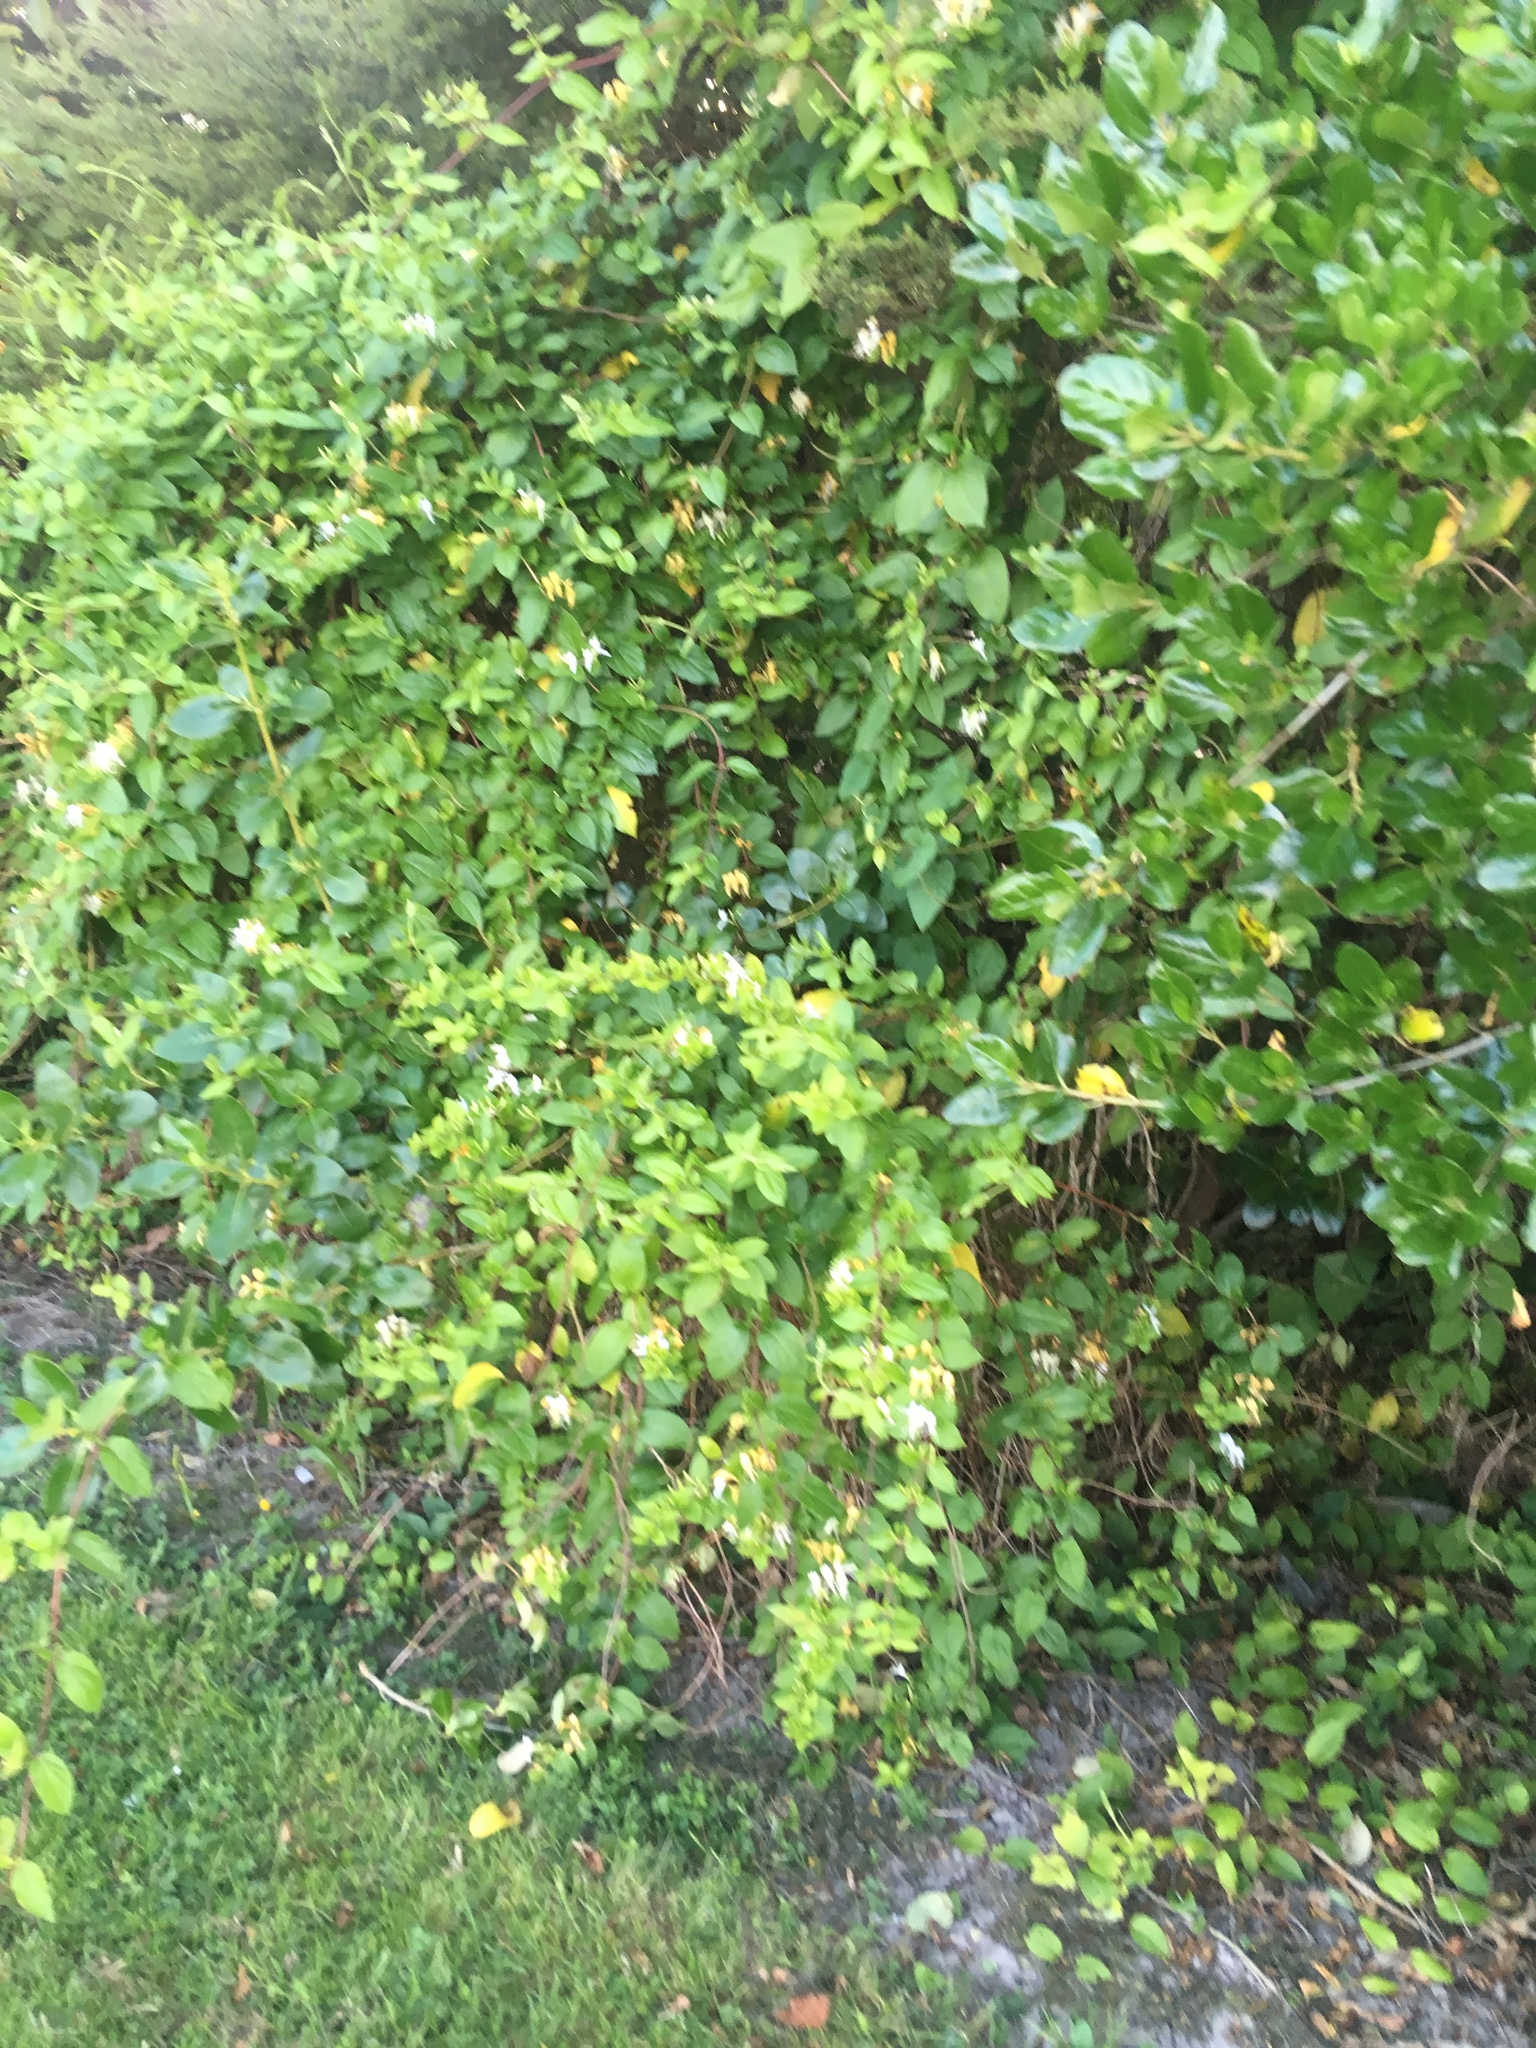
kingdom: Plantae
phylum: Tracheophyta
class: Magnoliopsida
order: Gentianales
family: Rubiaceae
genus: Coprosma
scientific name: Coprosma repens
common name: Tree bedstraw
